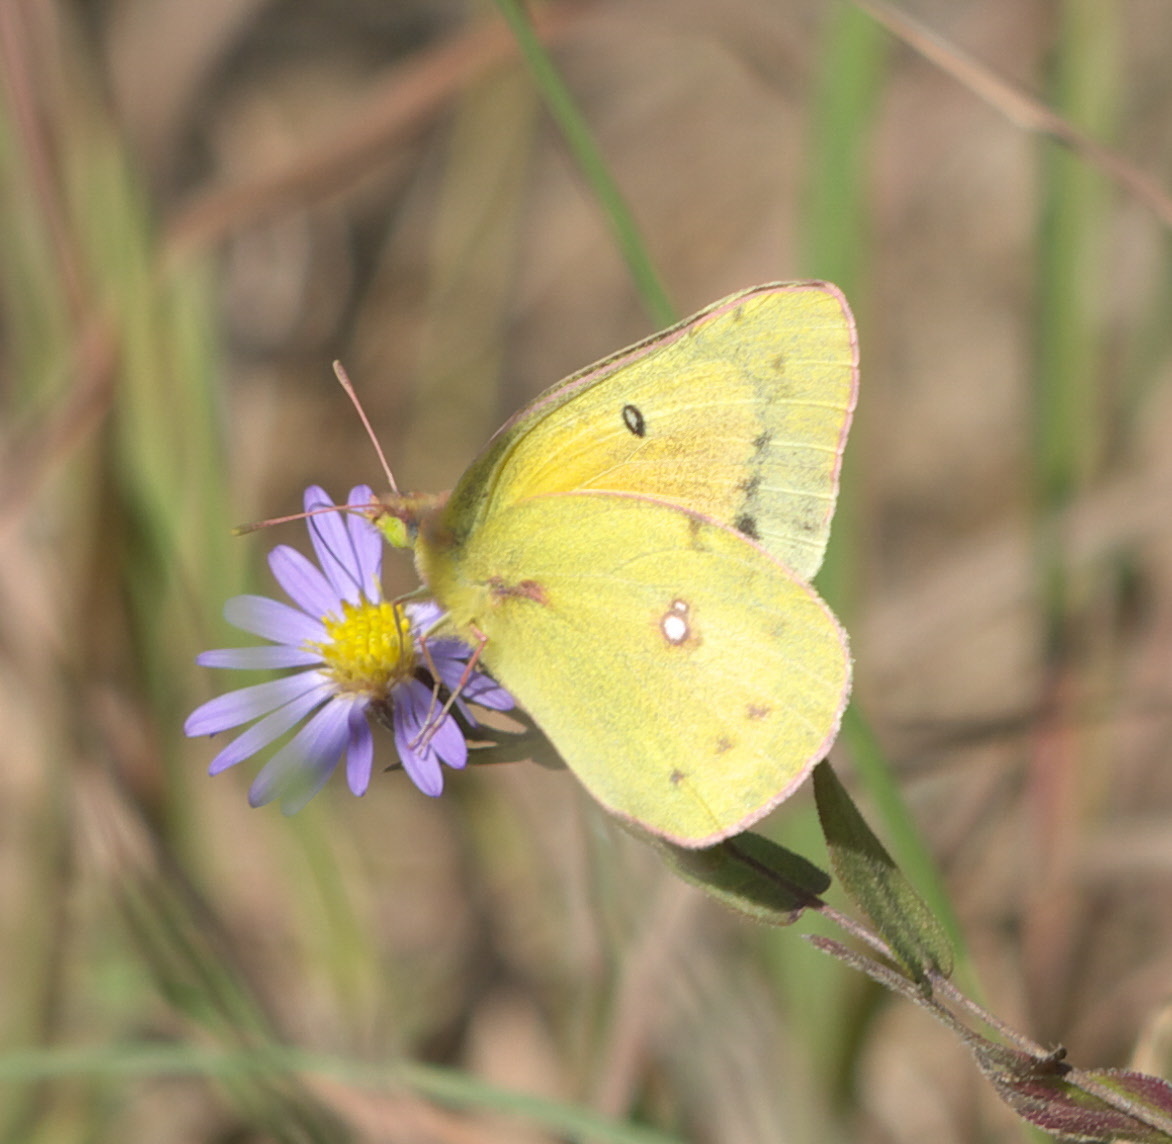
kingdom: Animalia
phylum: Arthropoda
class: Insecta
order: Lepidoptera
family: Pieridae
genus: Colias
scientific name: Colias eurytheme
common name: Alfalfa butterfly
